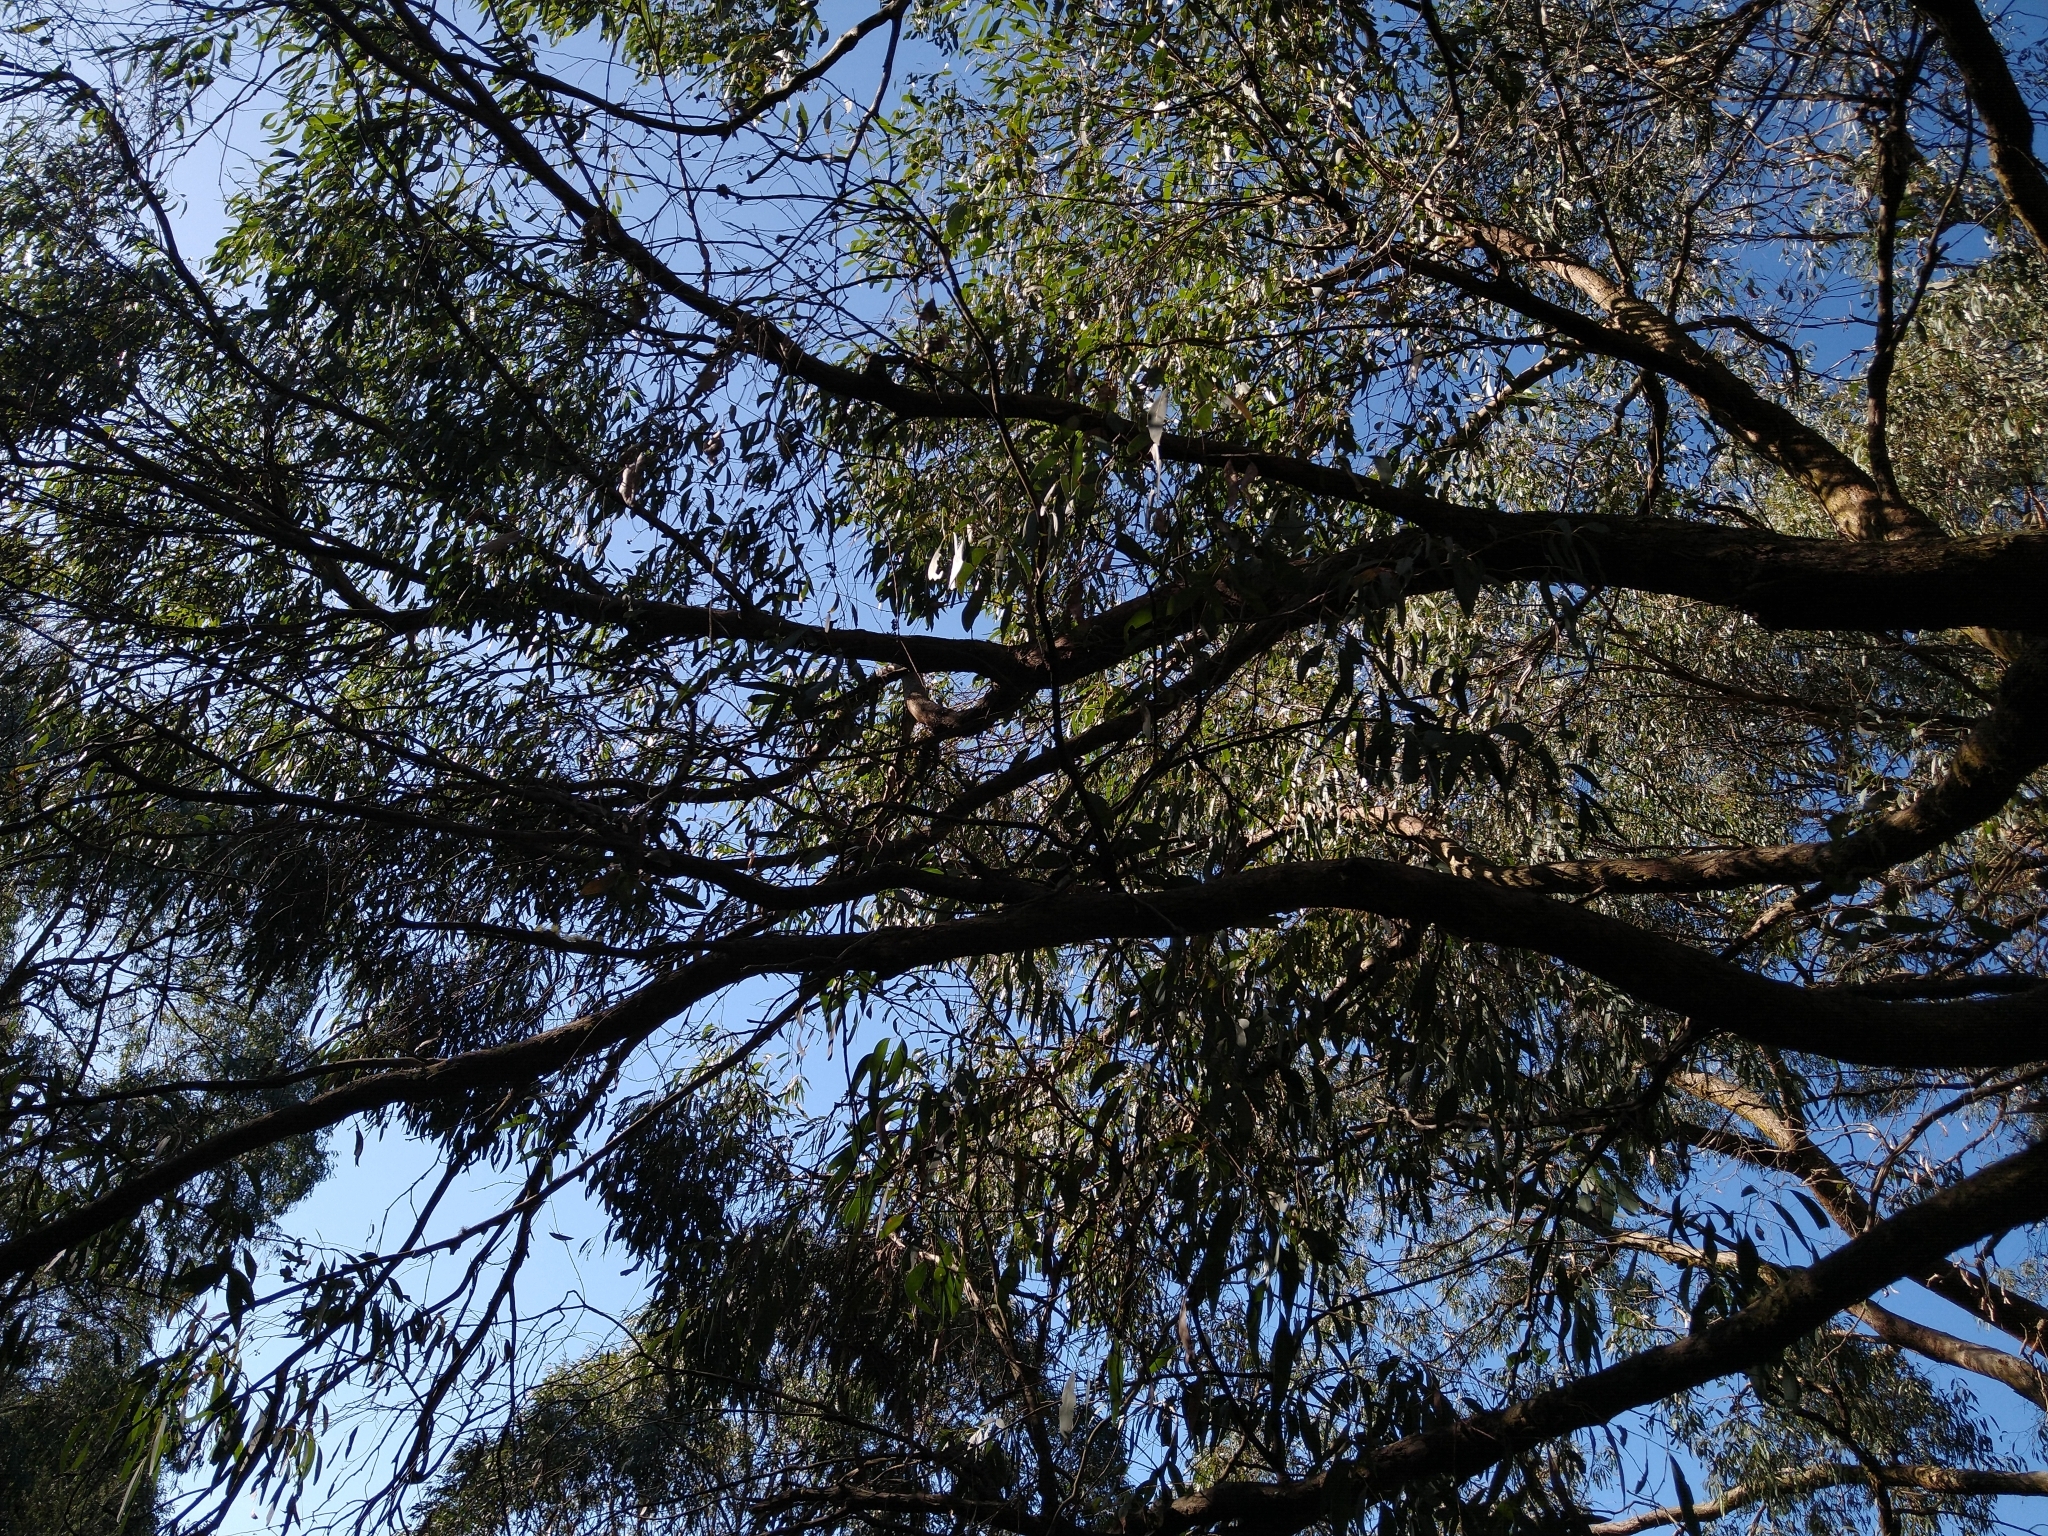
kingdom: Plantae
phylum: Tracheophyta
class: Magnoliopsida
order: Myrtales
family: Myrtaceae
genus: Eucalyptus
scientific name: Eucalyptus radiata
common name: Narrow-leaved-peppermint
